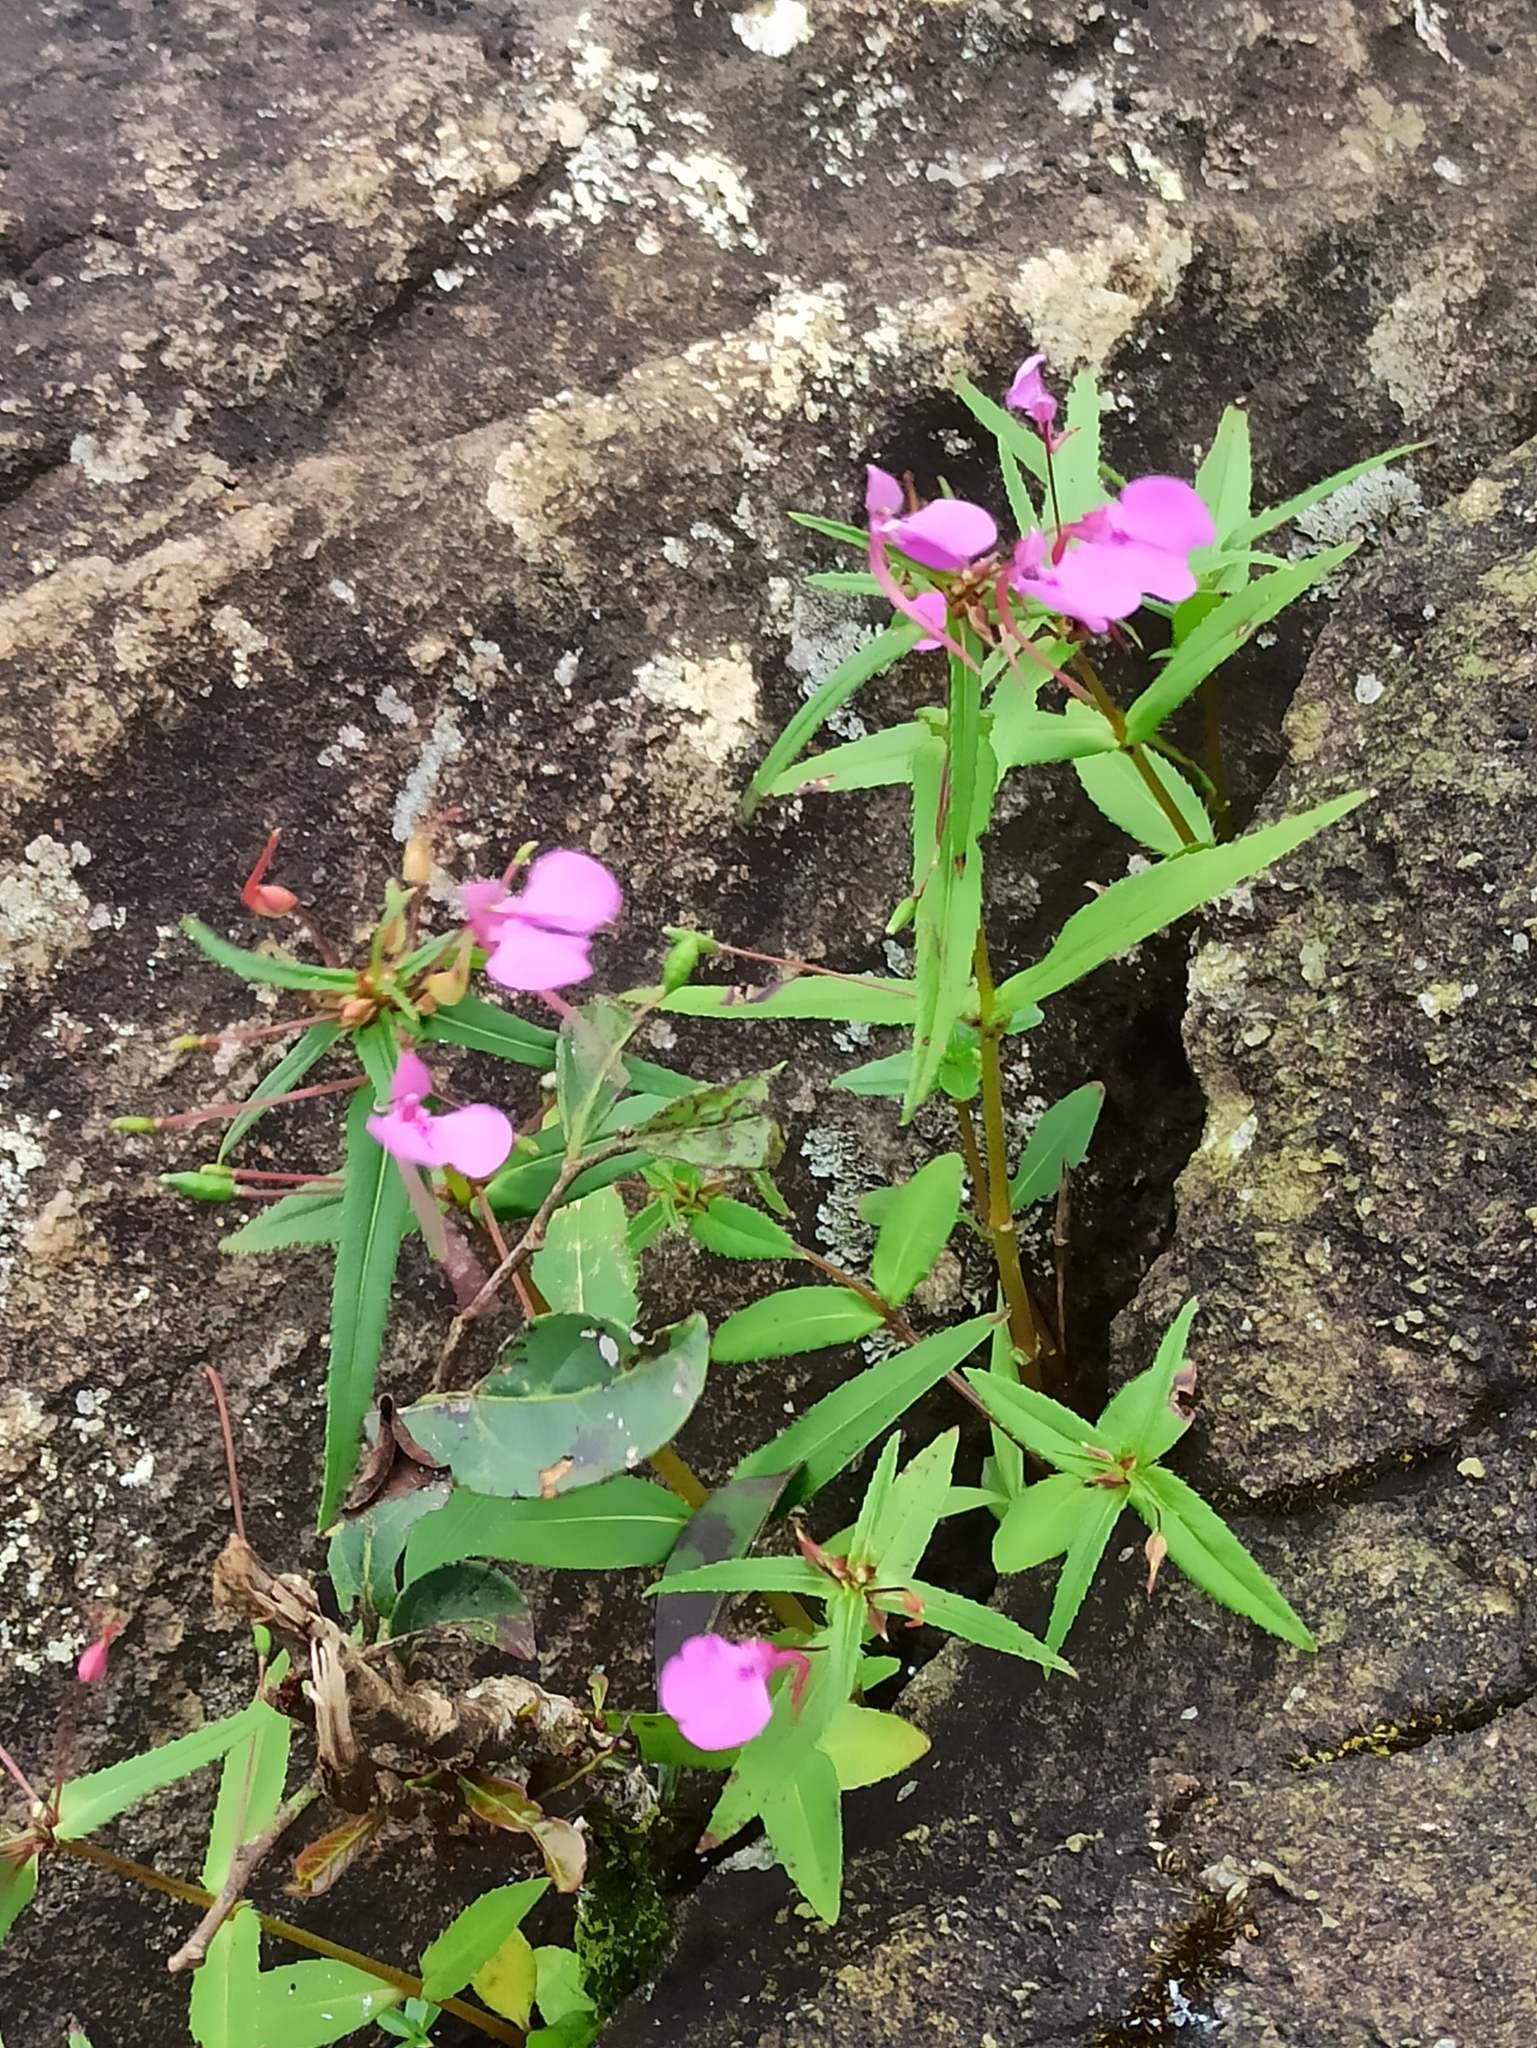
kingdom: Plantae
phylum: Tracheophyta
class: Magnoliopsida
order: Ericales
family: Balsaminaceae
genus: Impatiens
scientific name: Impatiens diversifolia
